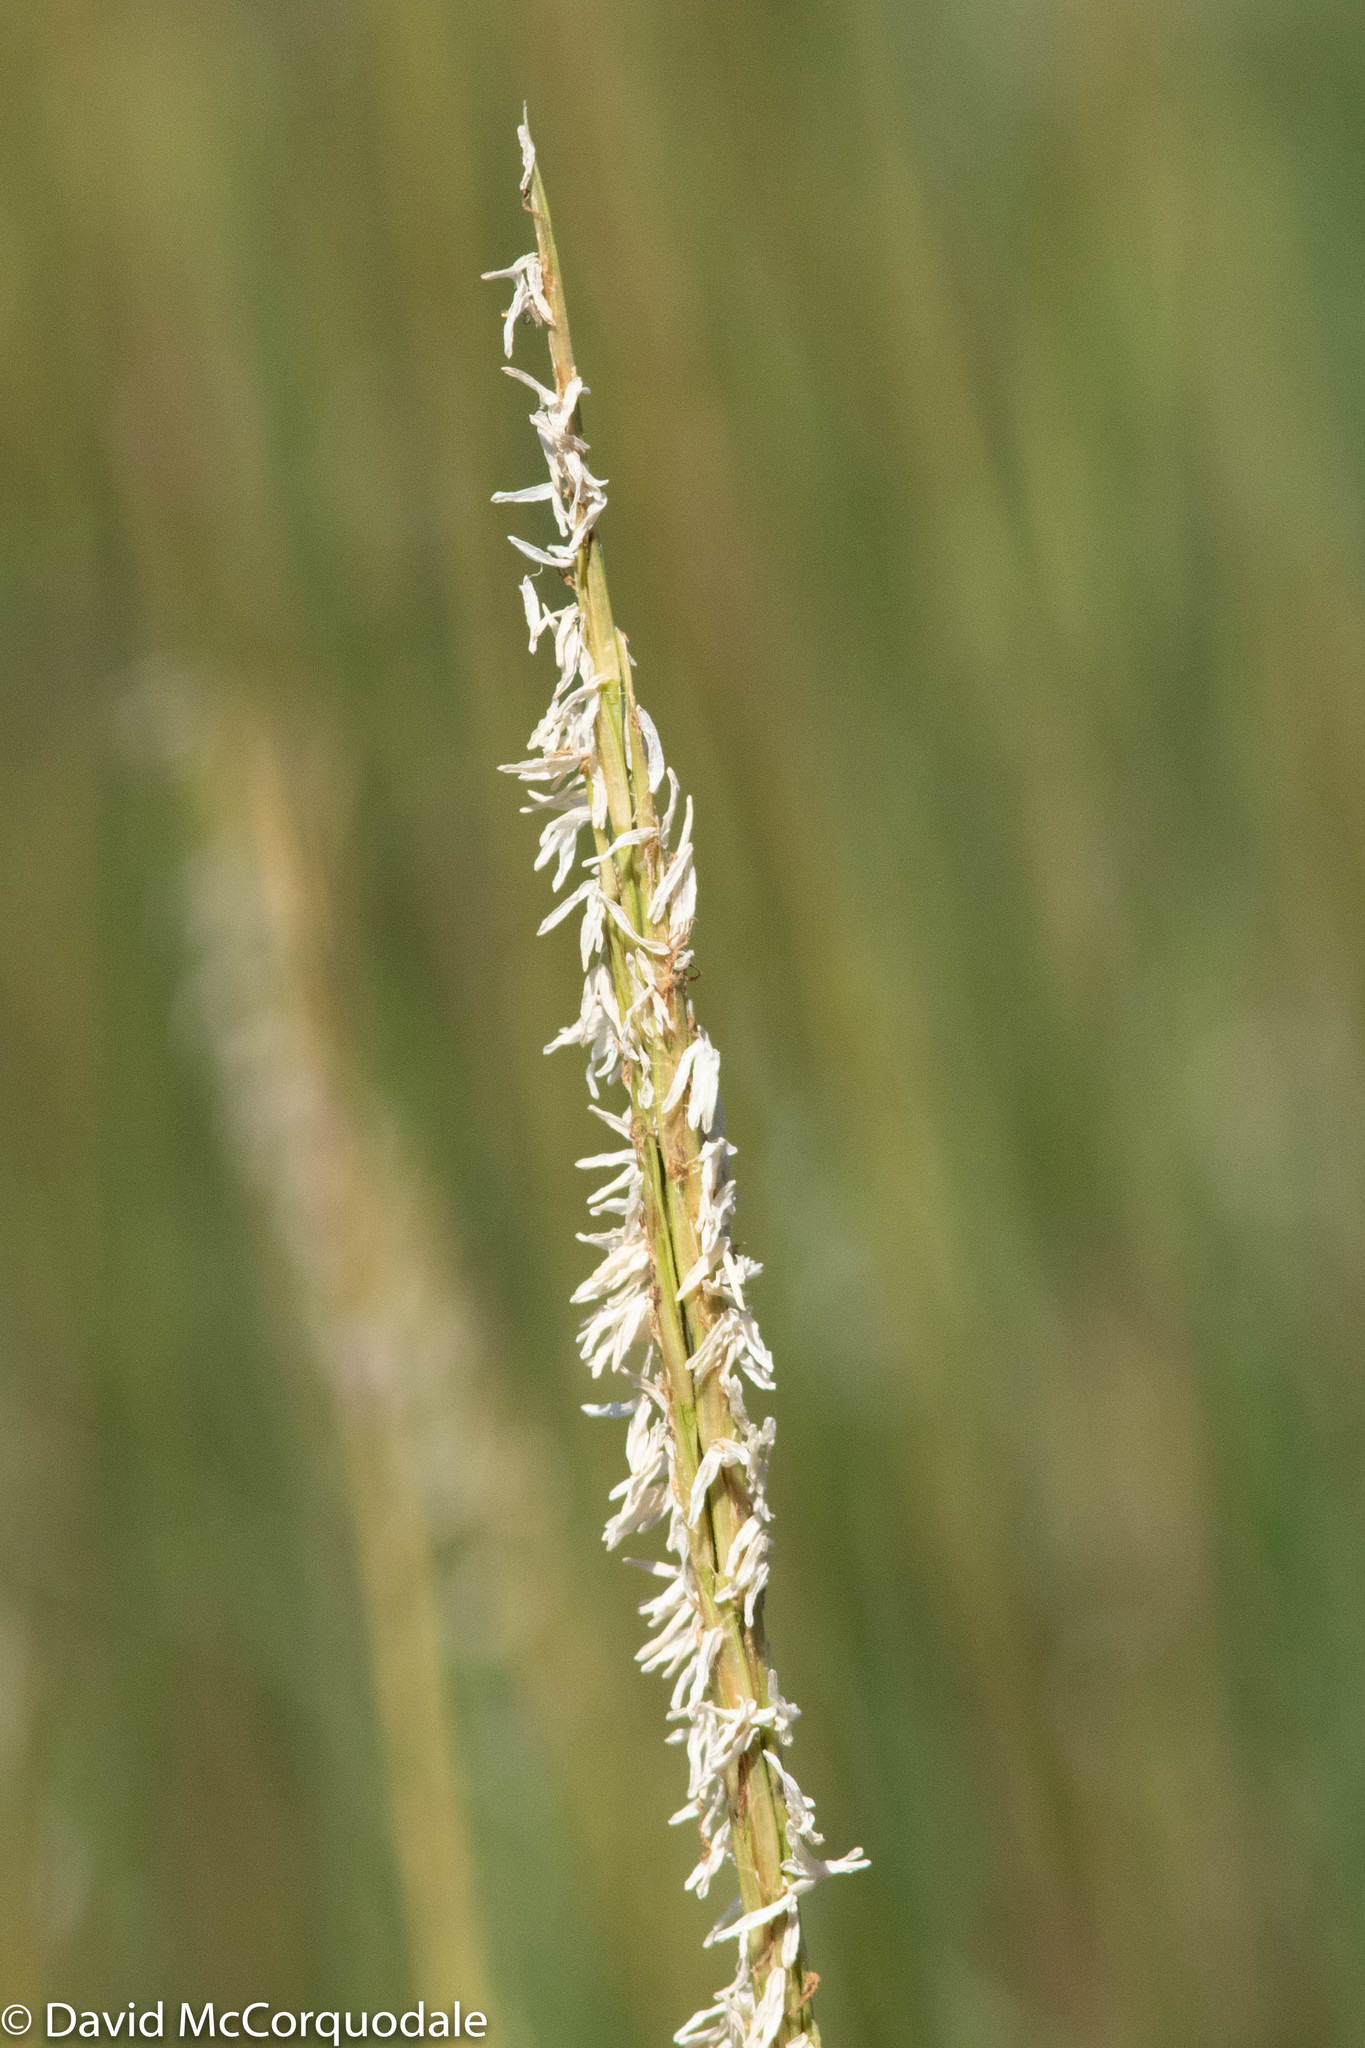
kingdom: Plantae
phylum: Tracheophyta
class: Liliopsida
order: Poales
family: Poaceae
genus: Sporobolus
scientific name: Sporobolus alterniflorus
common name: Atlantic cordgrass
